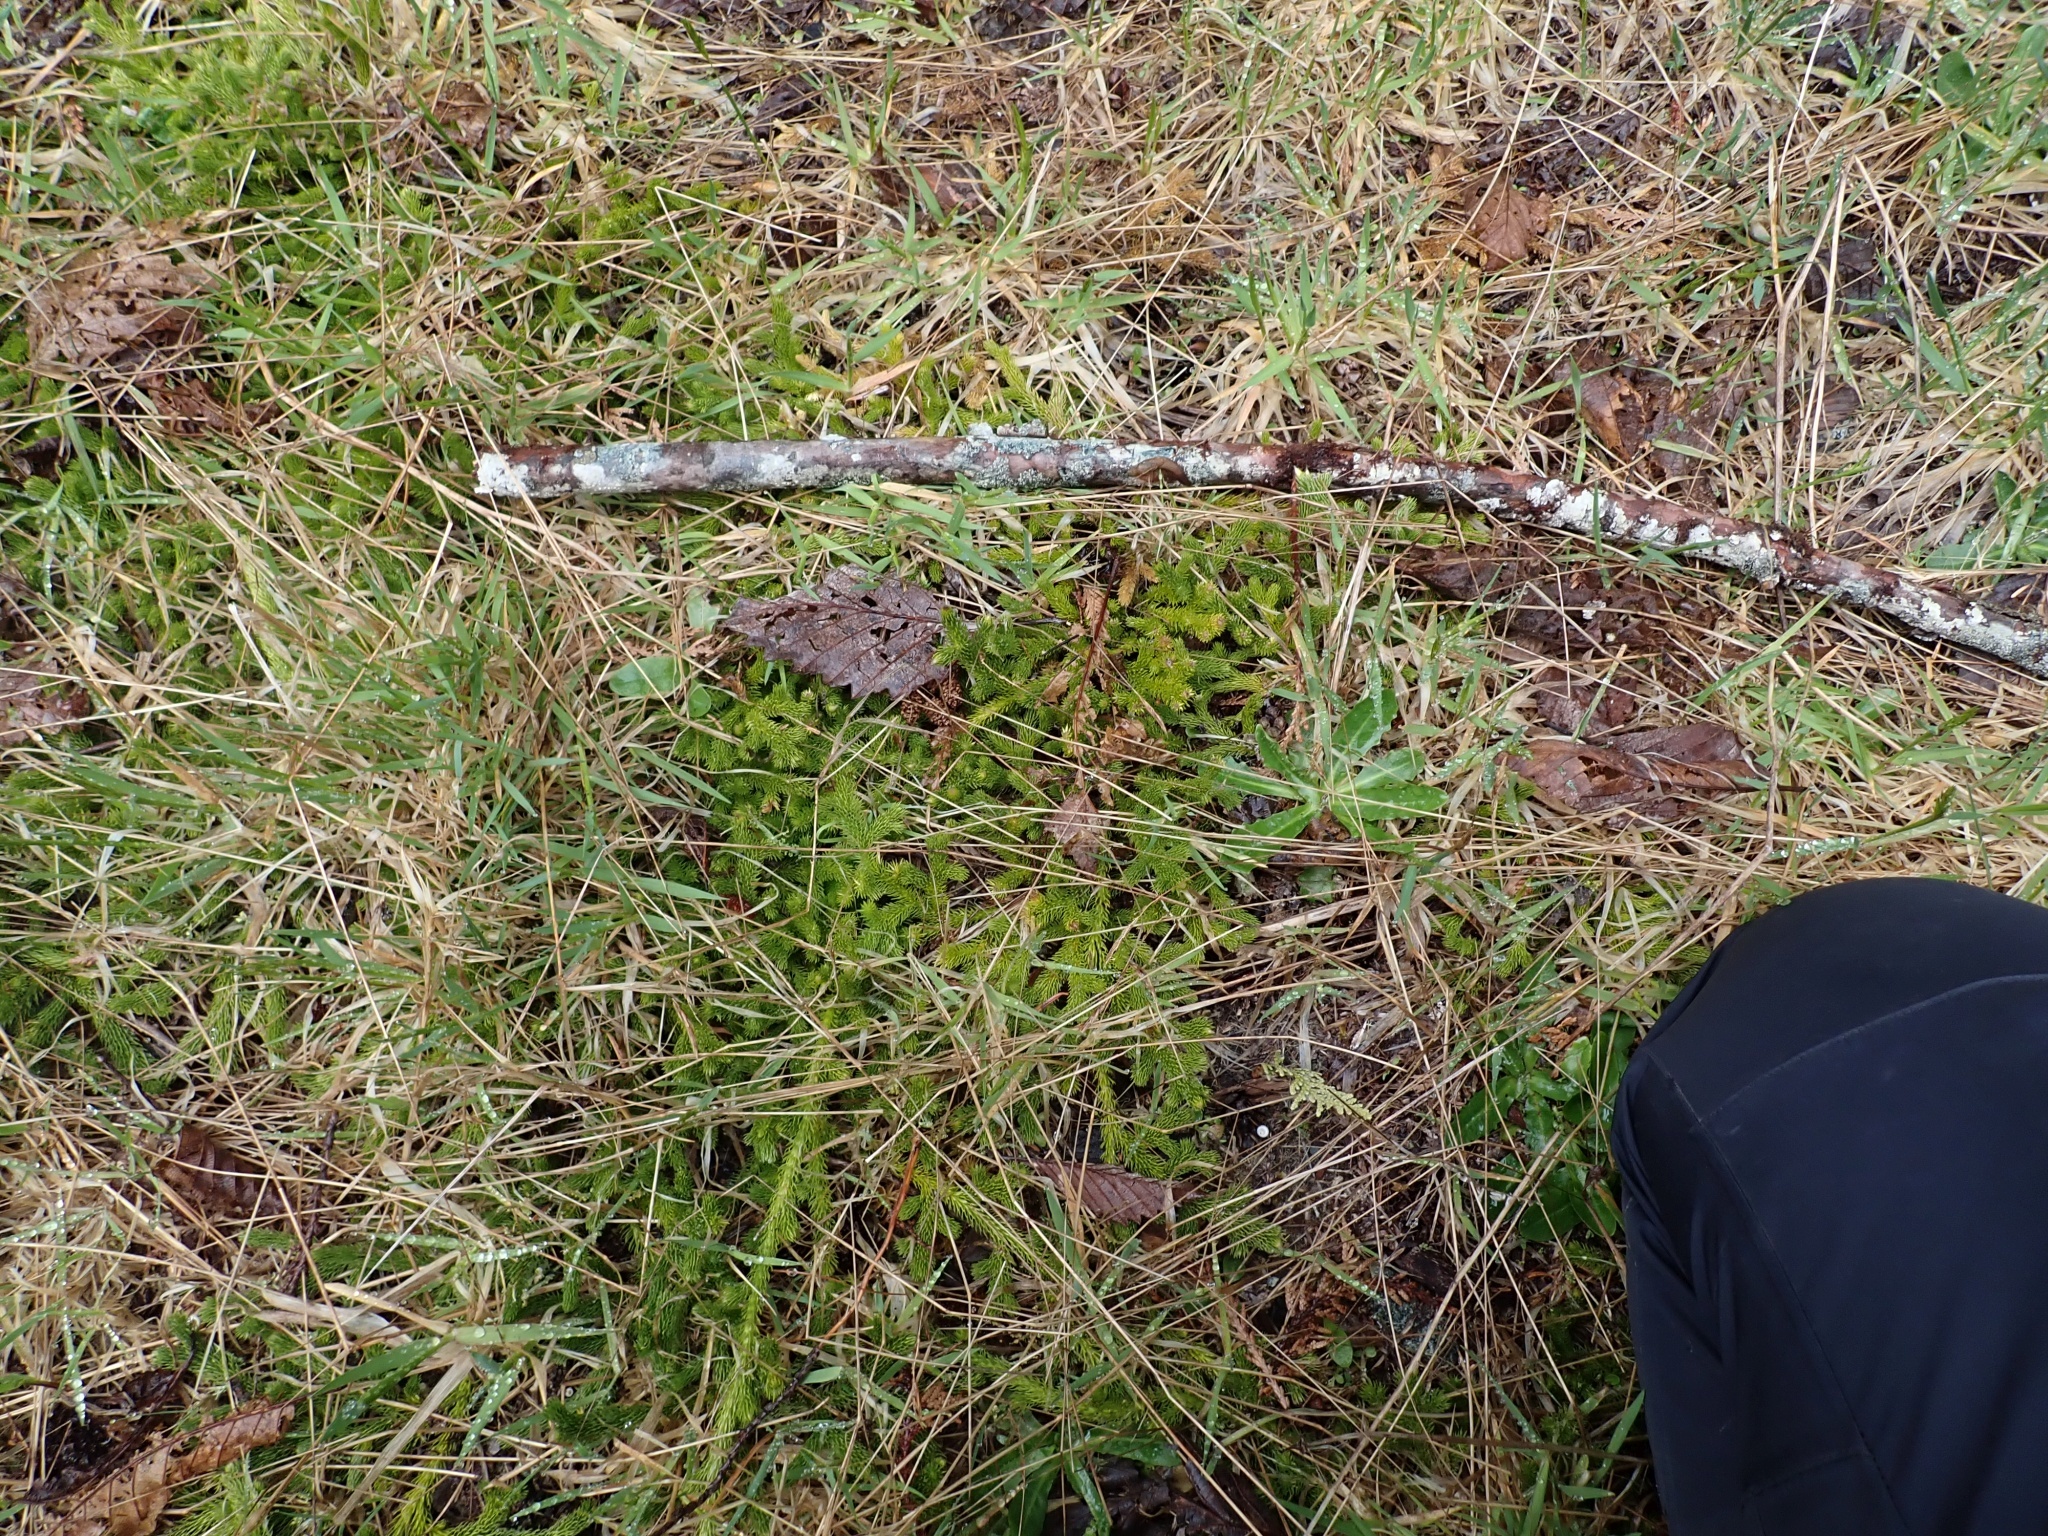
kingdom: Plantae
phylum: Tracheophyta
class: Lycopodiopsida
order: Lycopodiales
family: Lycopodiaceae
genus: Lycopodium
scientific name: Lycopodium clavatum
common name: Stag's-horn clubmoss
